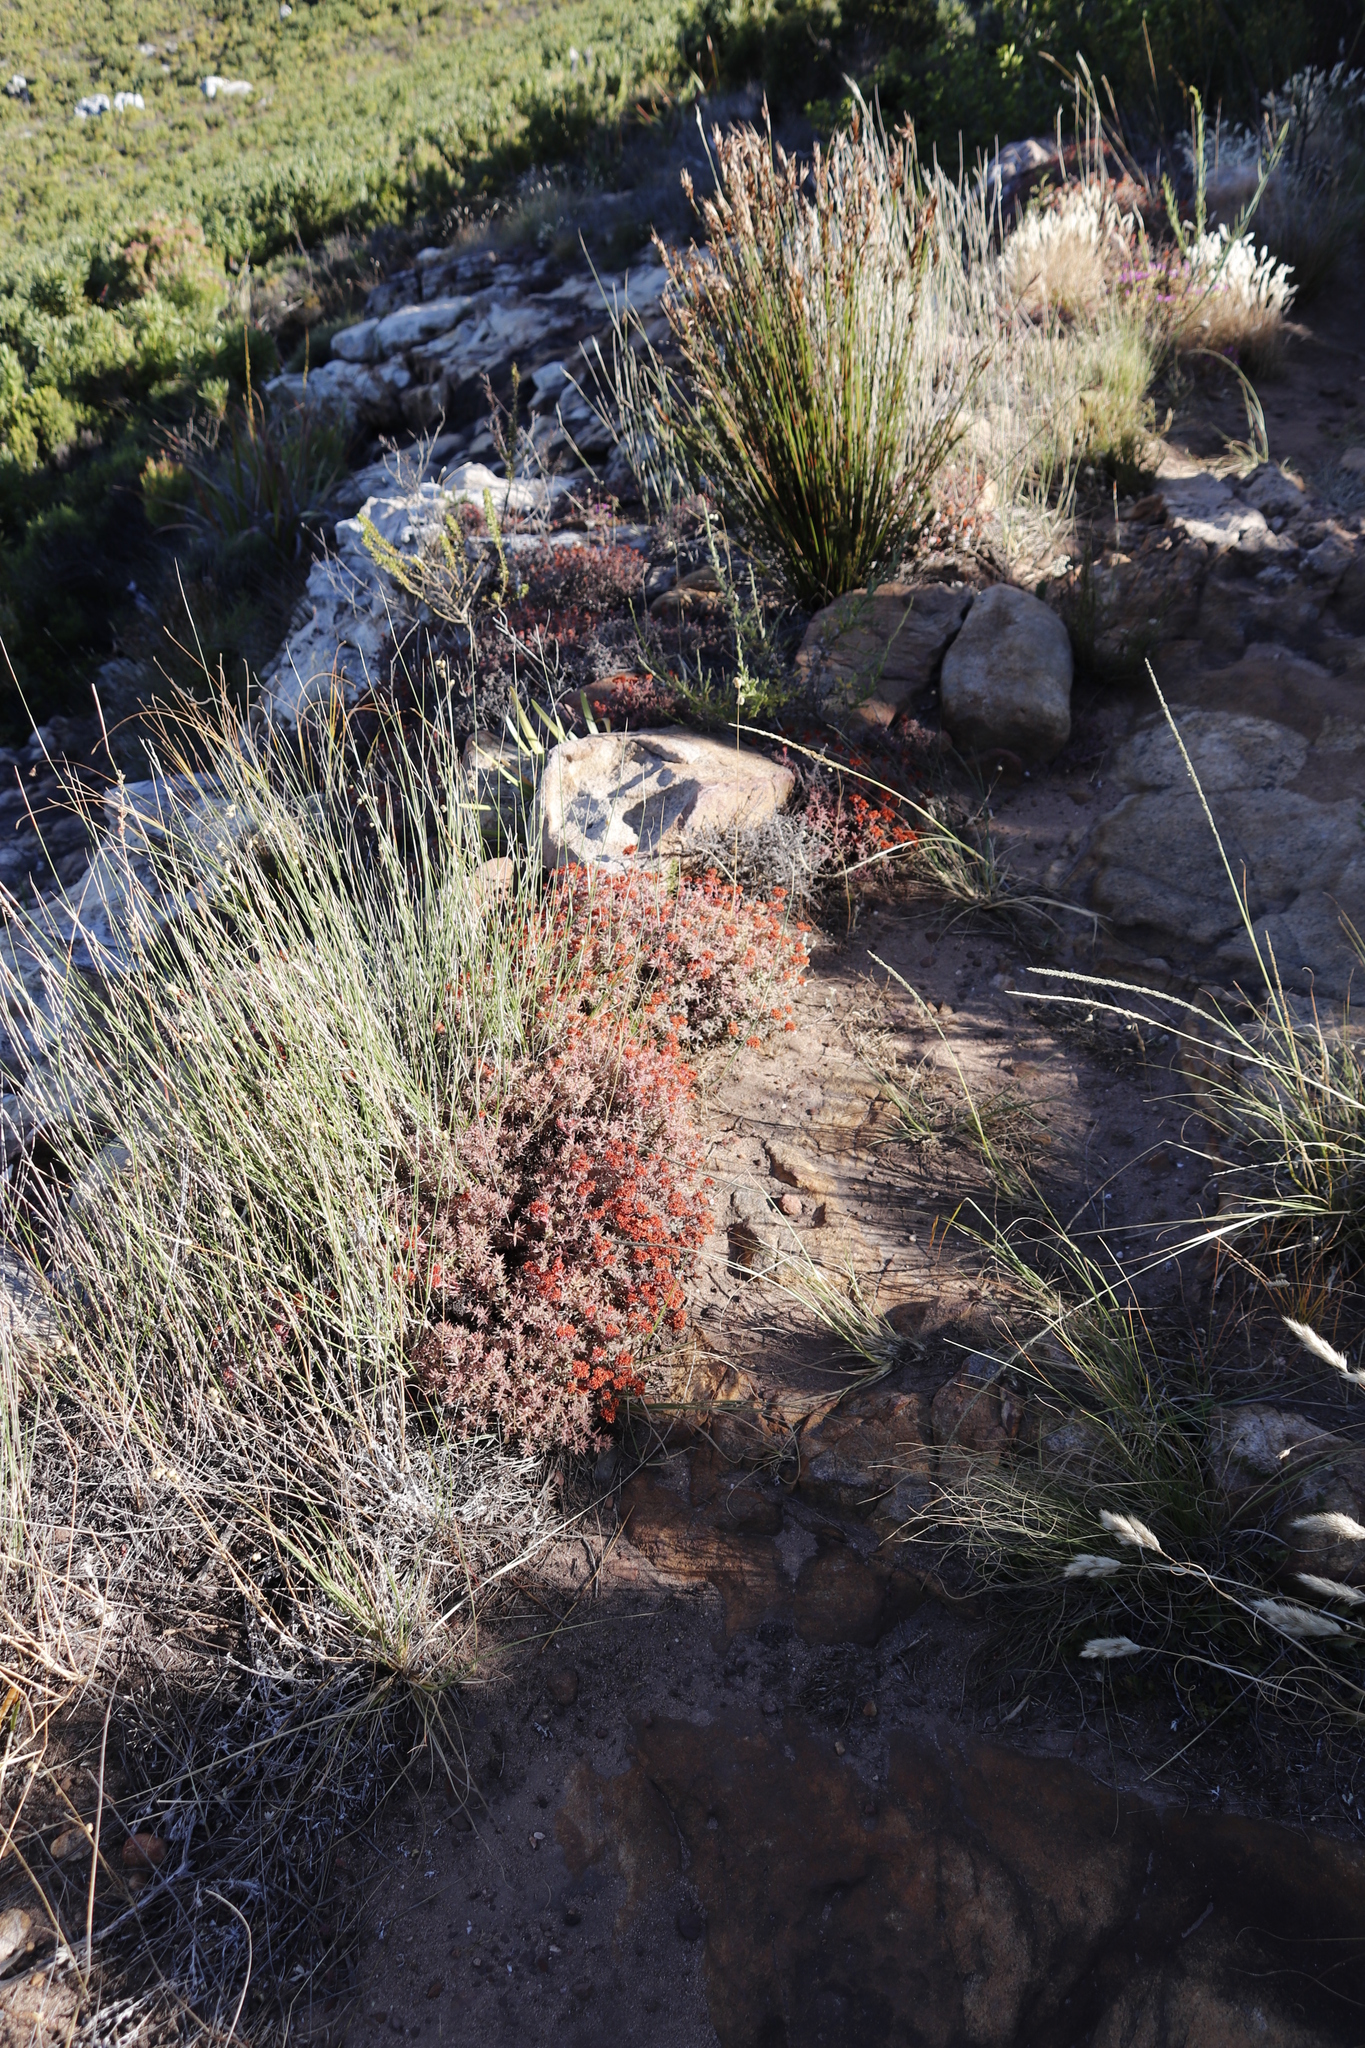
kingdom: Plantae
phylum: Tracheophyta
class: Magnoliopsida
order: Saxifragales
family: Crassulaceae
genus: Crassula
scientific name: Crassula pruinosa
